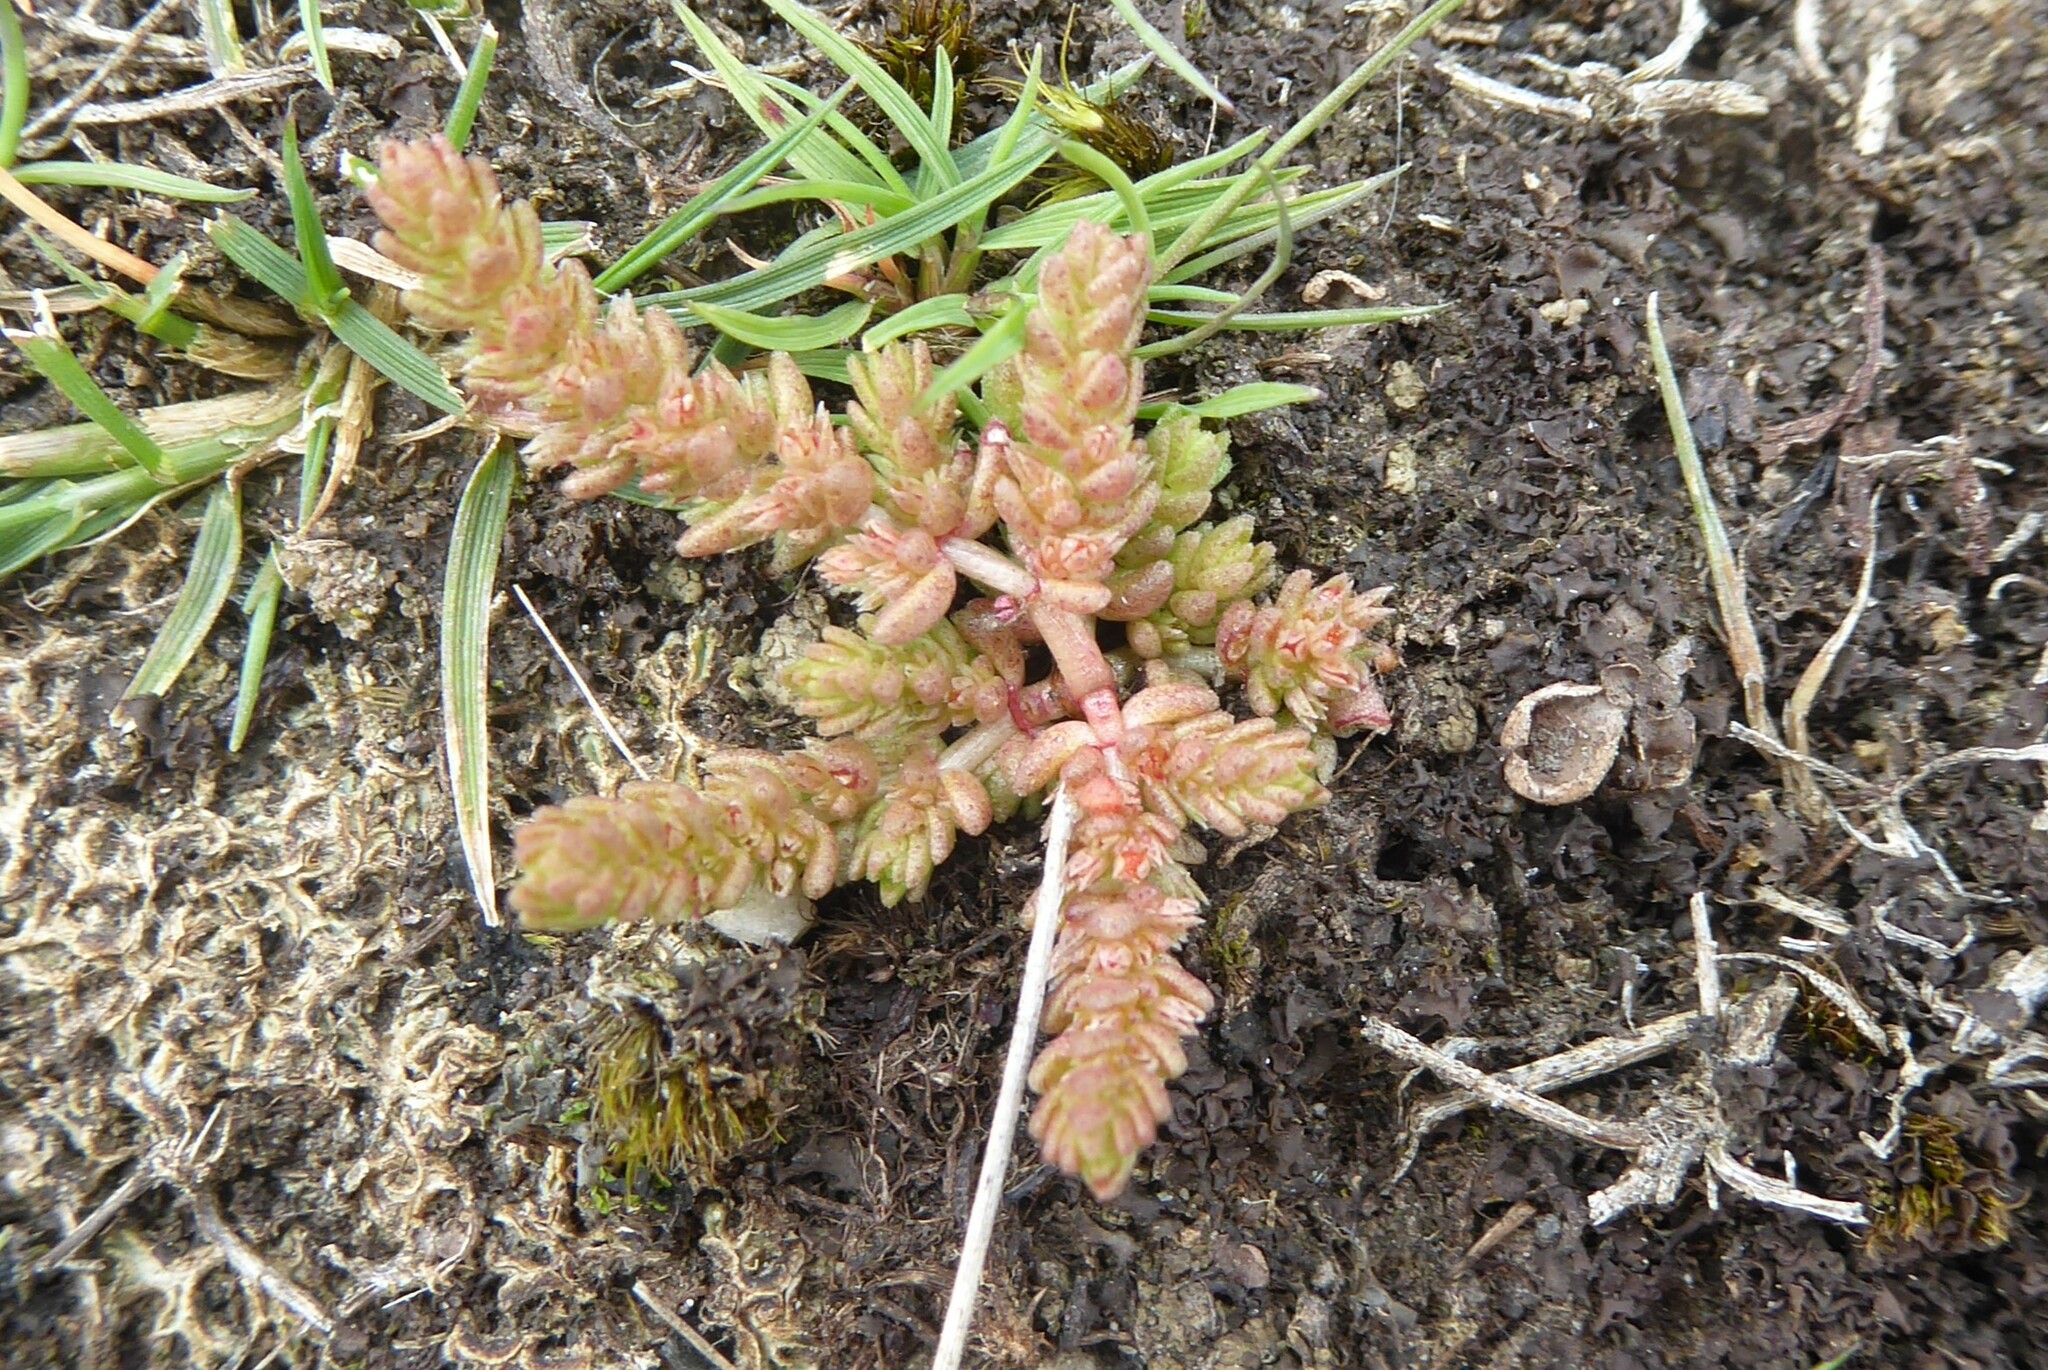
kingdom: Plantae
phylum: Tracheophyta
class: Magnoliopsida
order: Saxifragales
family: Crassulaceae
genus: Crassula
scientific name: Crassula colligata
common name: Pygmyweed
